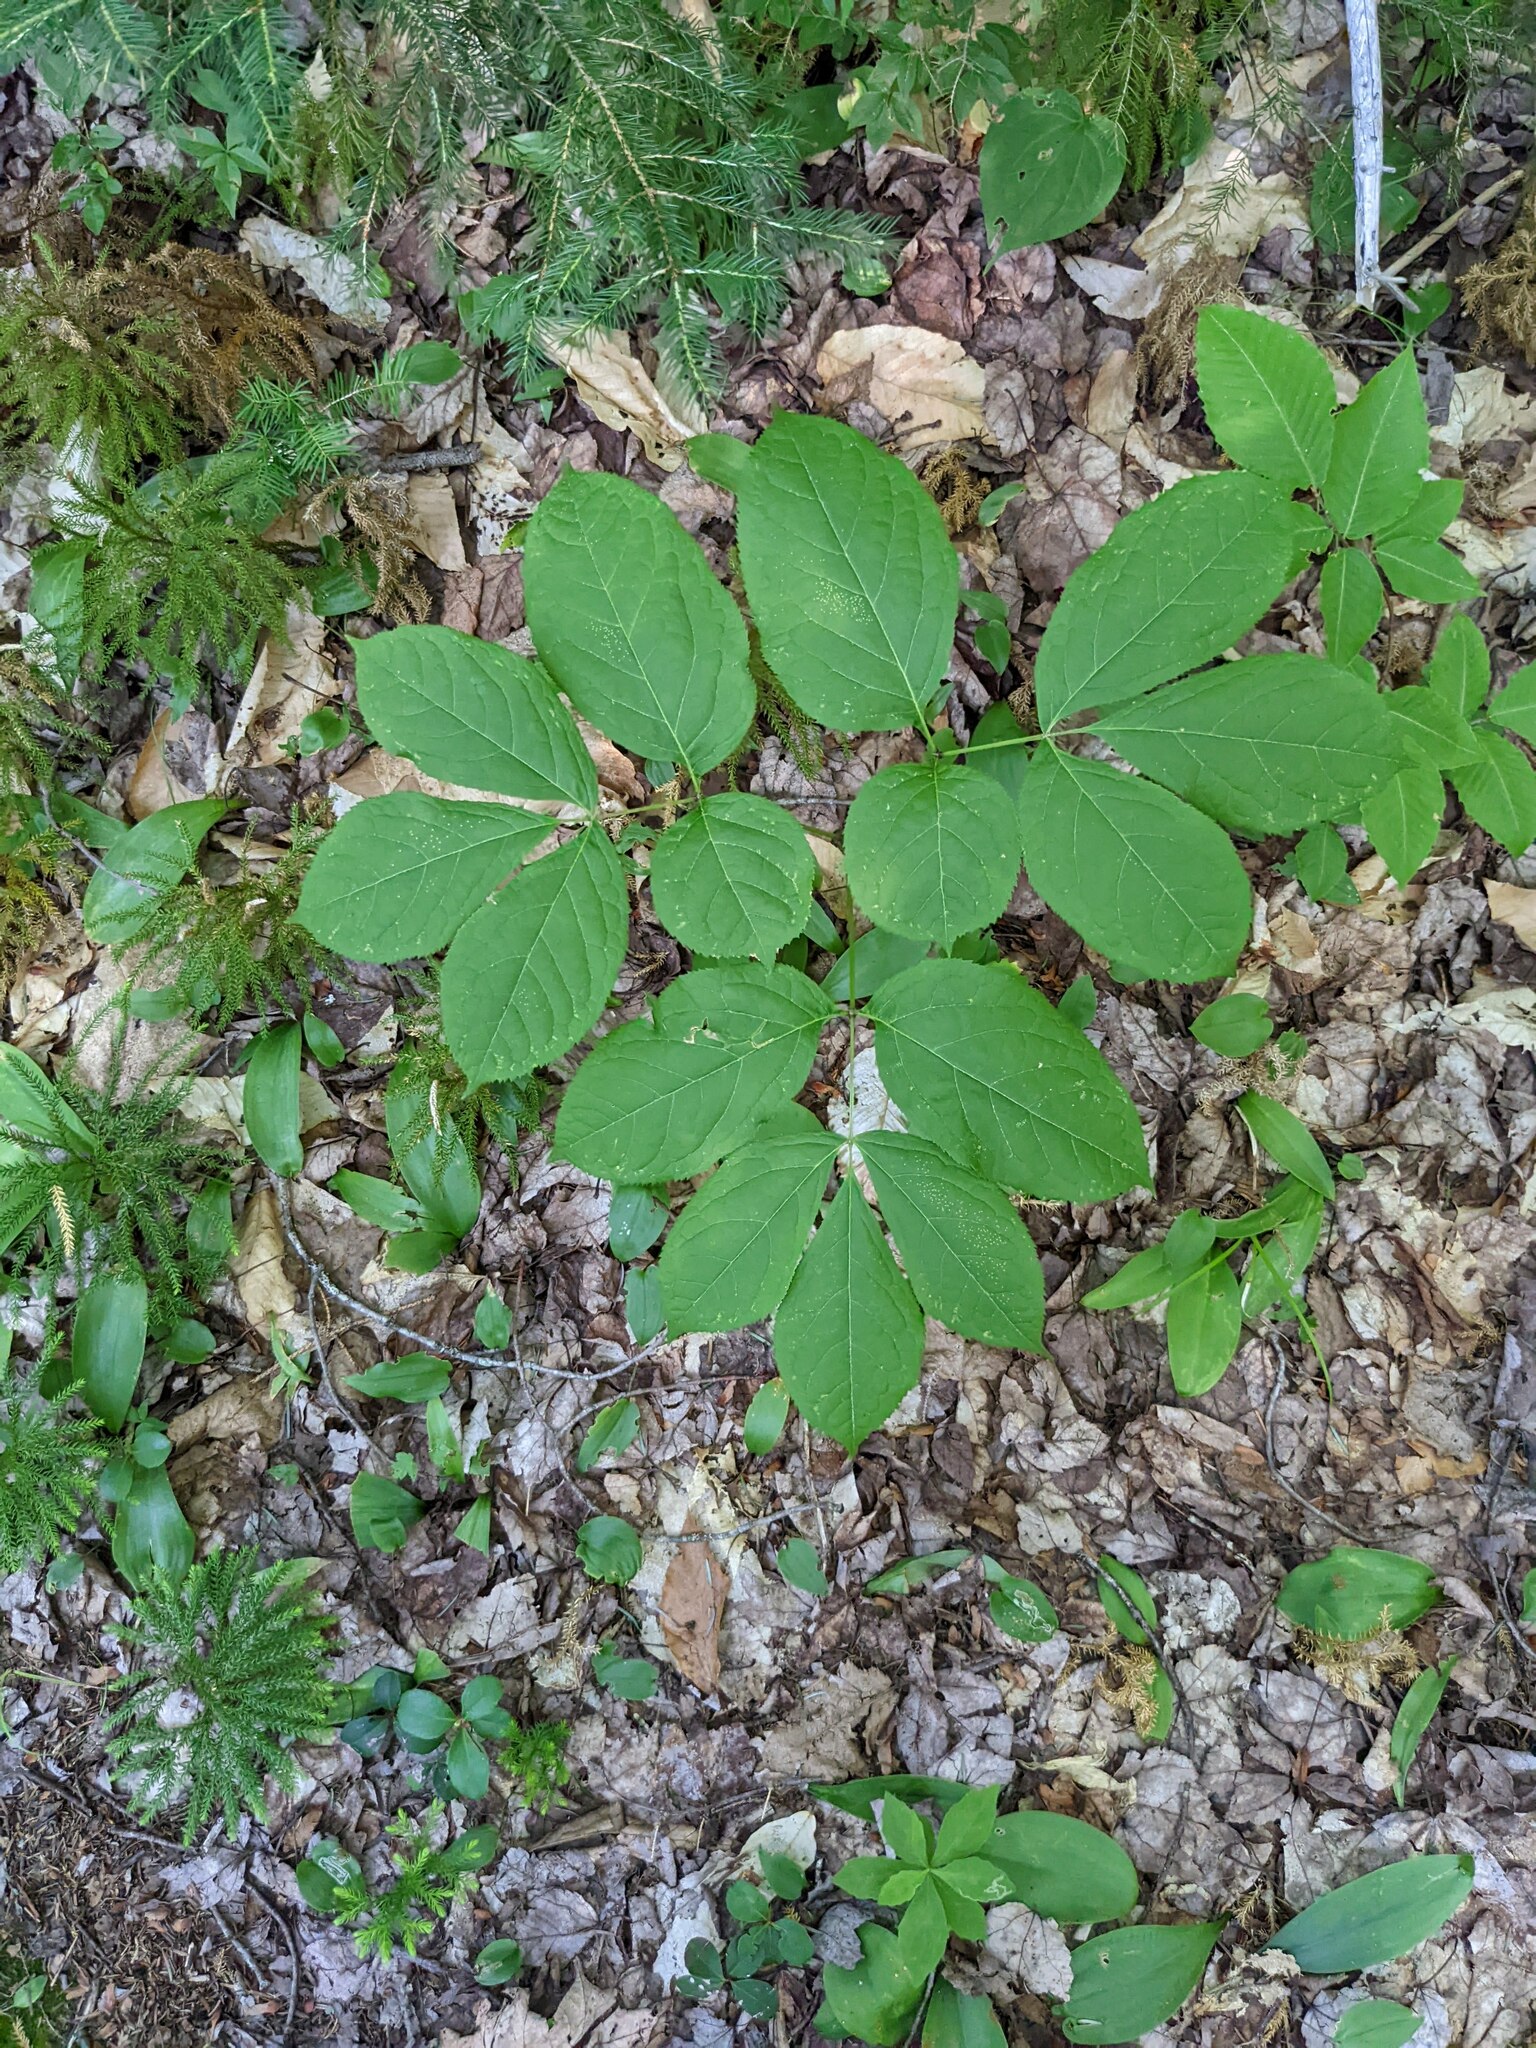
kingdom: Plantae
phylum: Tracheophyta
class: Magnoliopsida
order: Apiales
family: Araliaceae
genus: Aralia
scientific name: Aralia nudicaulis
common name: Wild sarsaparilla
